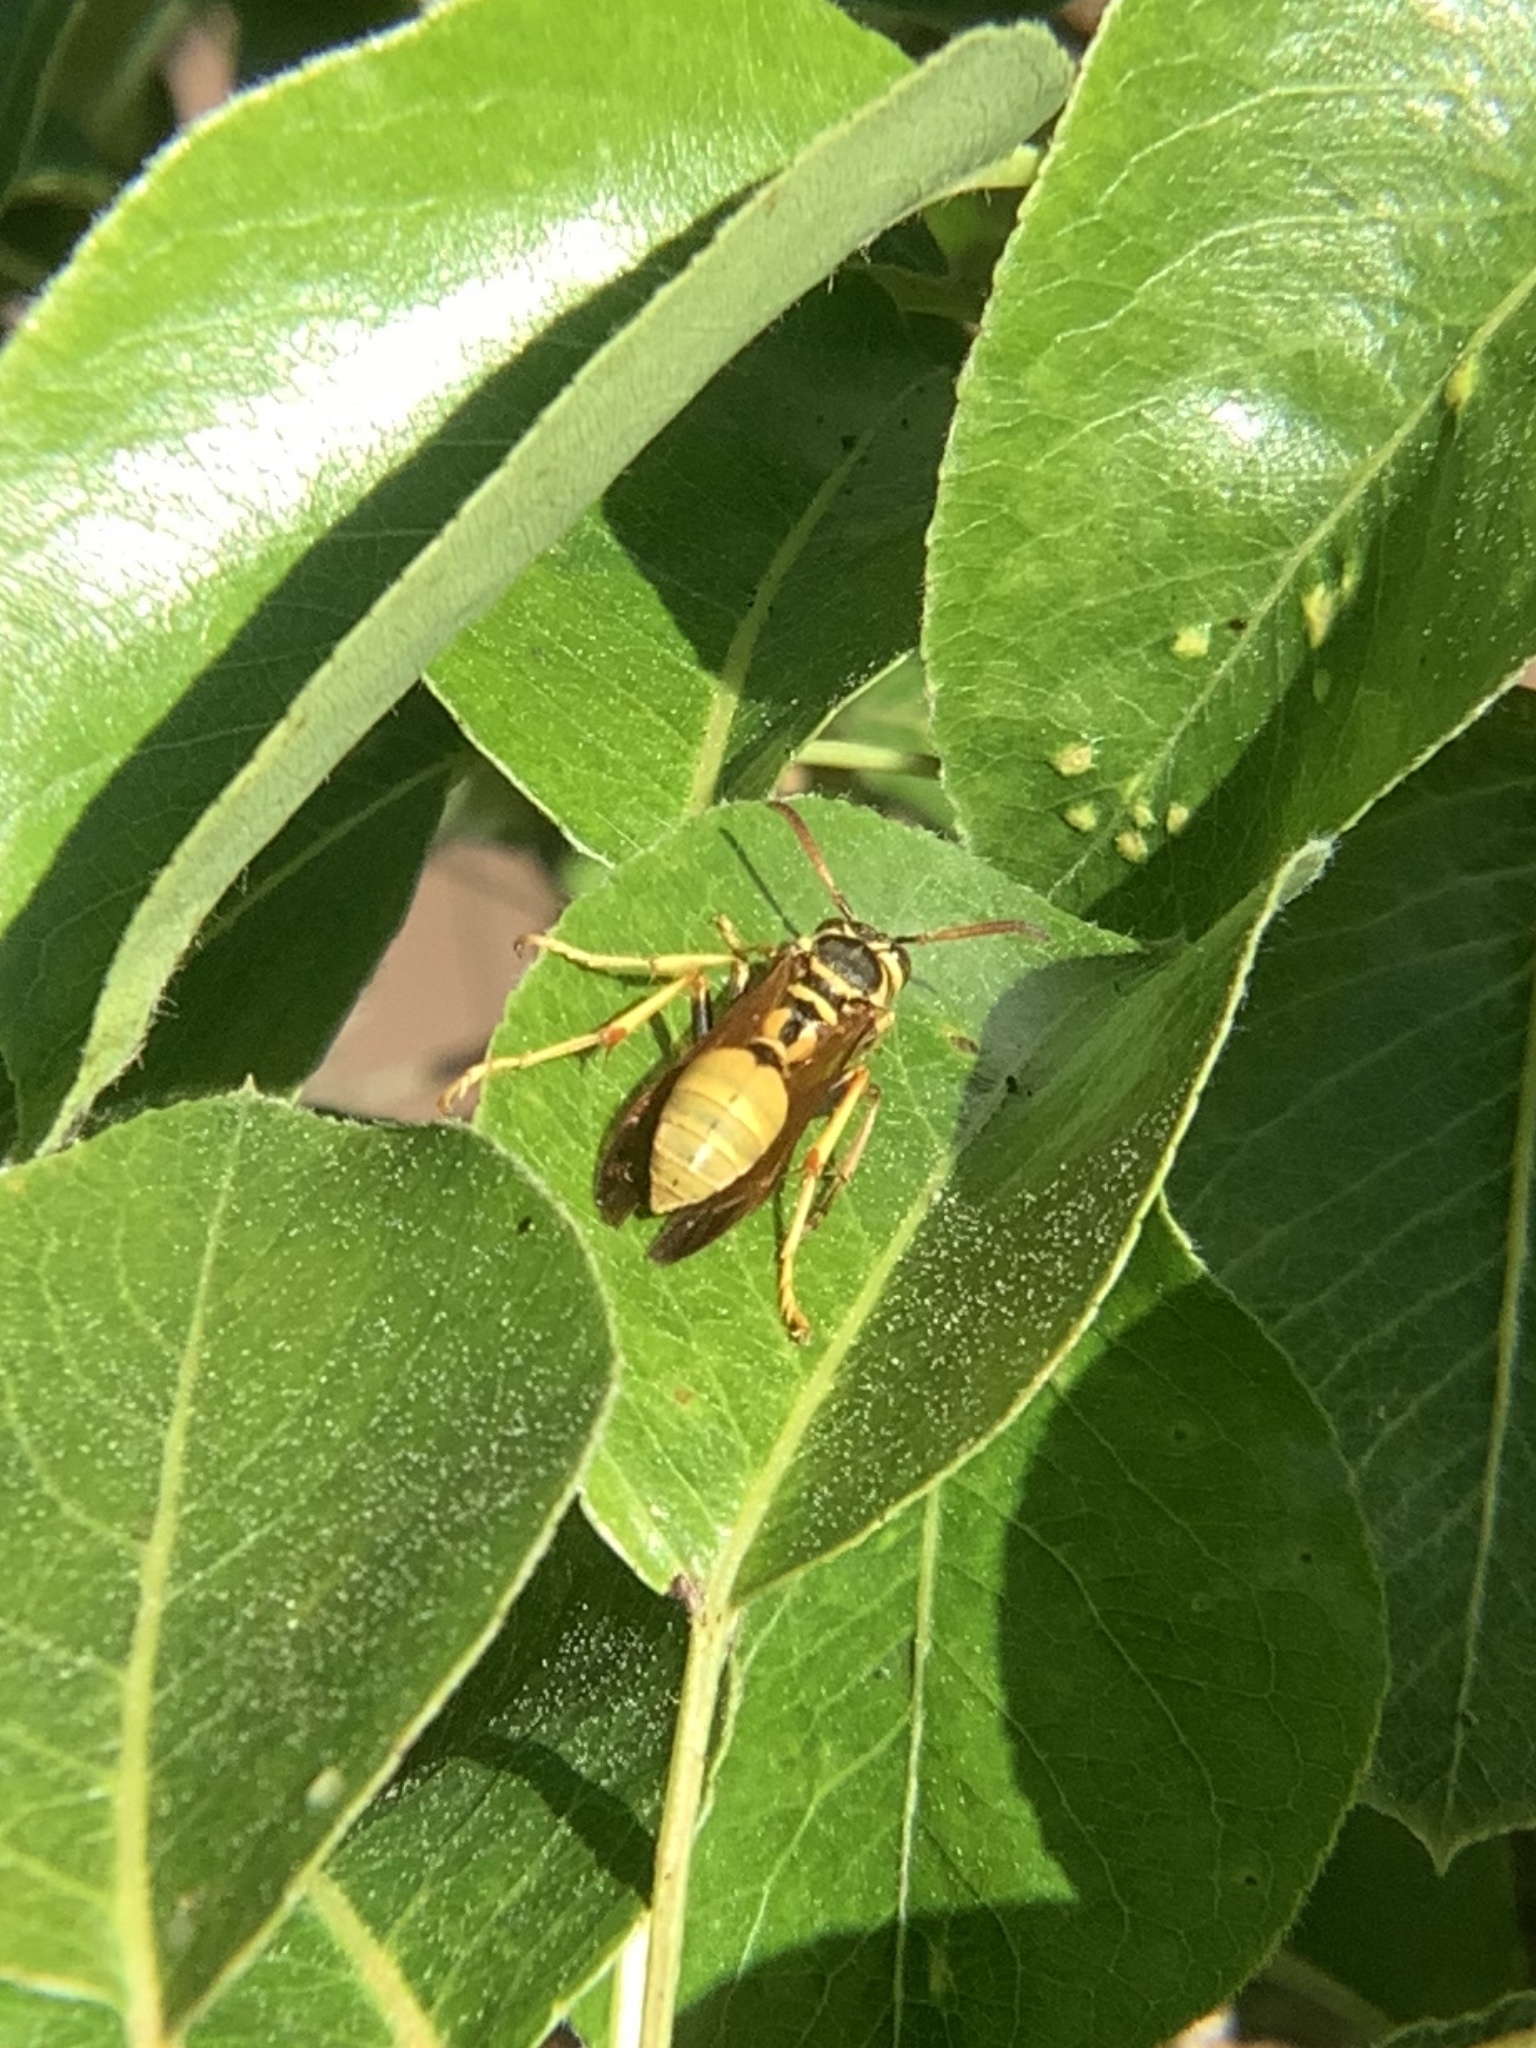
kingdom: Animalia
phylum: Arthropoda
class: Insecta
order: Hymenoptera
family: Eumenidae
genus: Polistes
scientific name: Polistes aurifer
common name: Paper wasp
